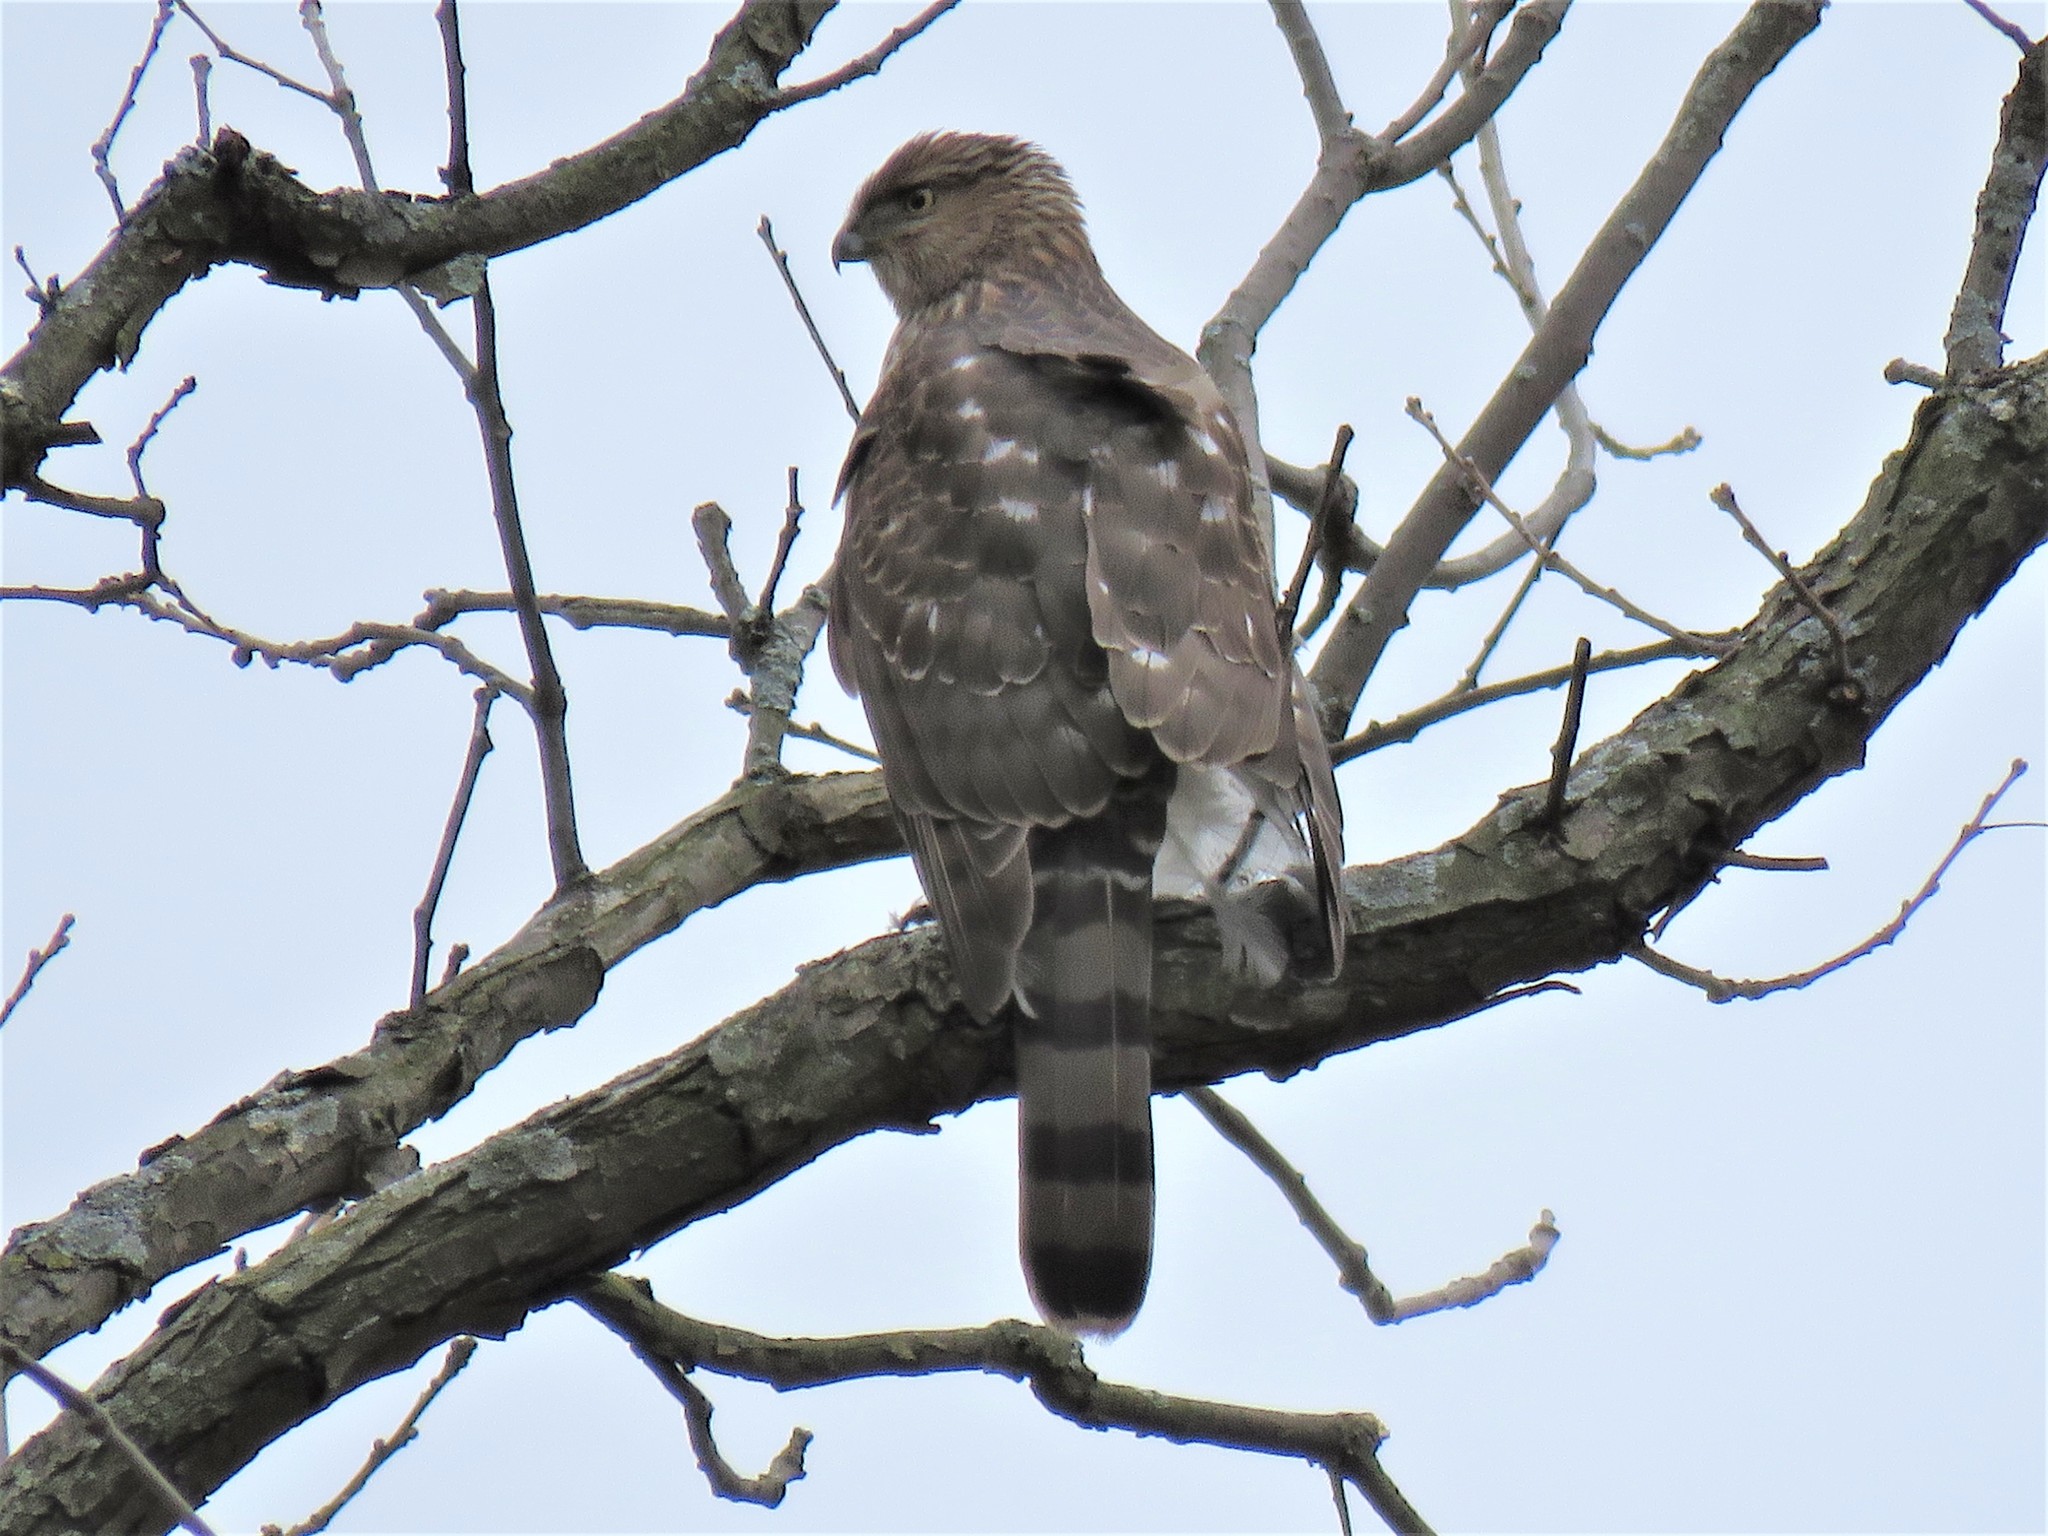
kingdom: Animalia
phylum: Chordata
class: Aves
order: Accipitriformes
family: Accipitridae
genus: Accipiter
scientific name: Accipiter cooperii
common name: Cooper's hawk
